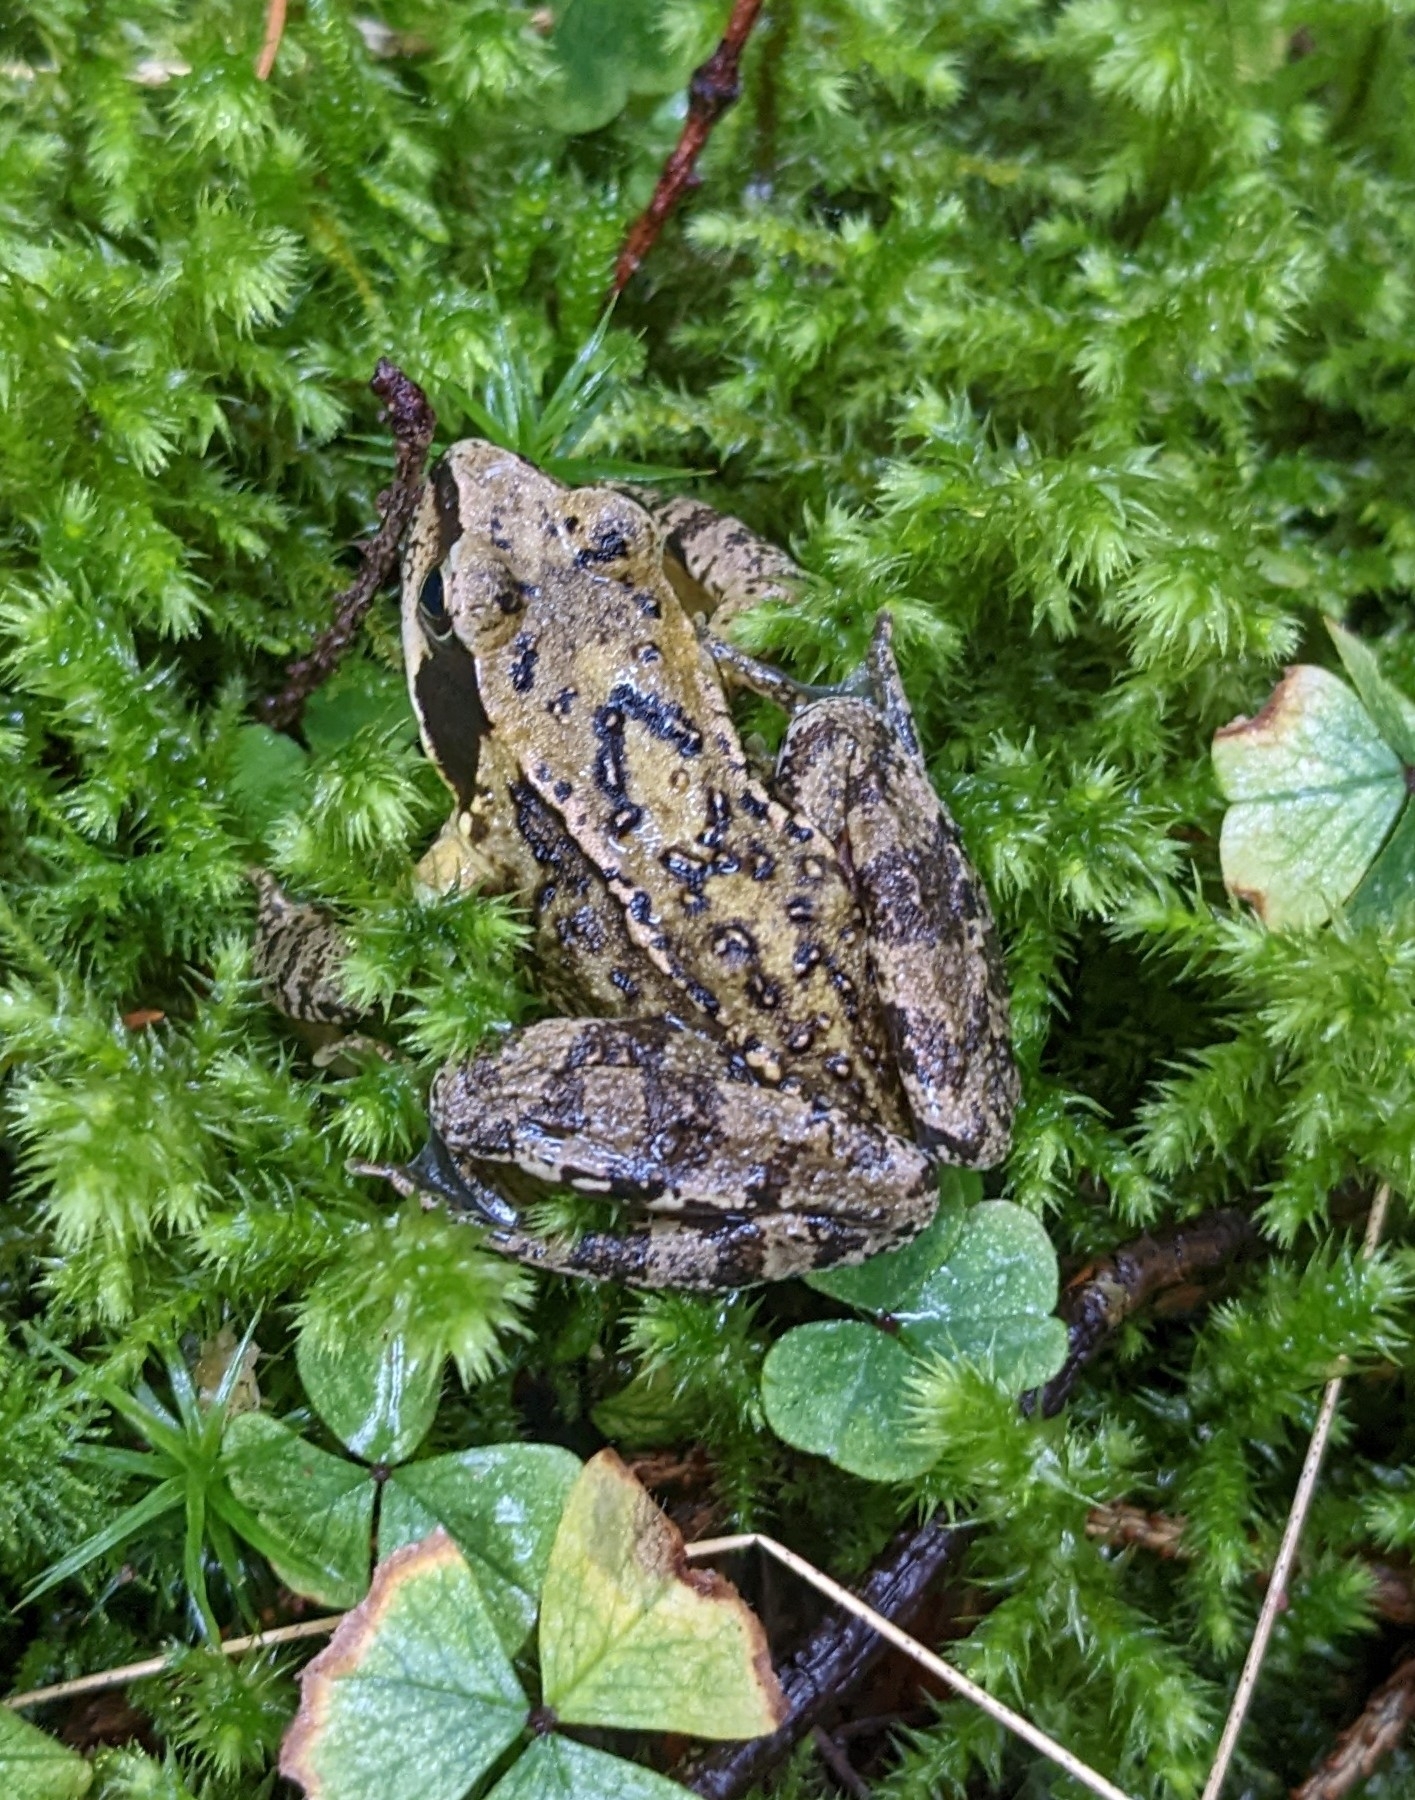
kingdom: Animalia
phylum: Chordata
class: Amphibia
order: Anura
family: Ranidae
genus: Rana
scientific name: Rana temporaria
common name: Common frog
